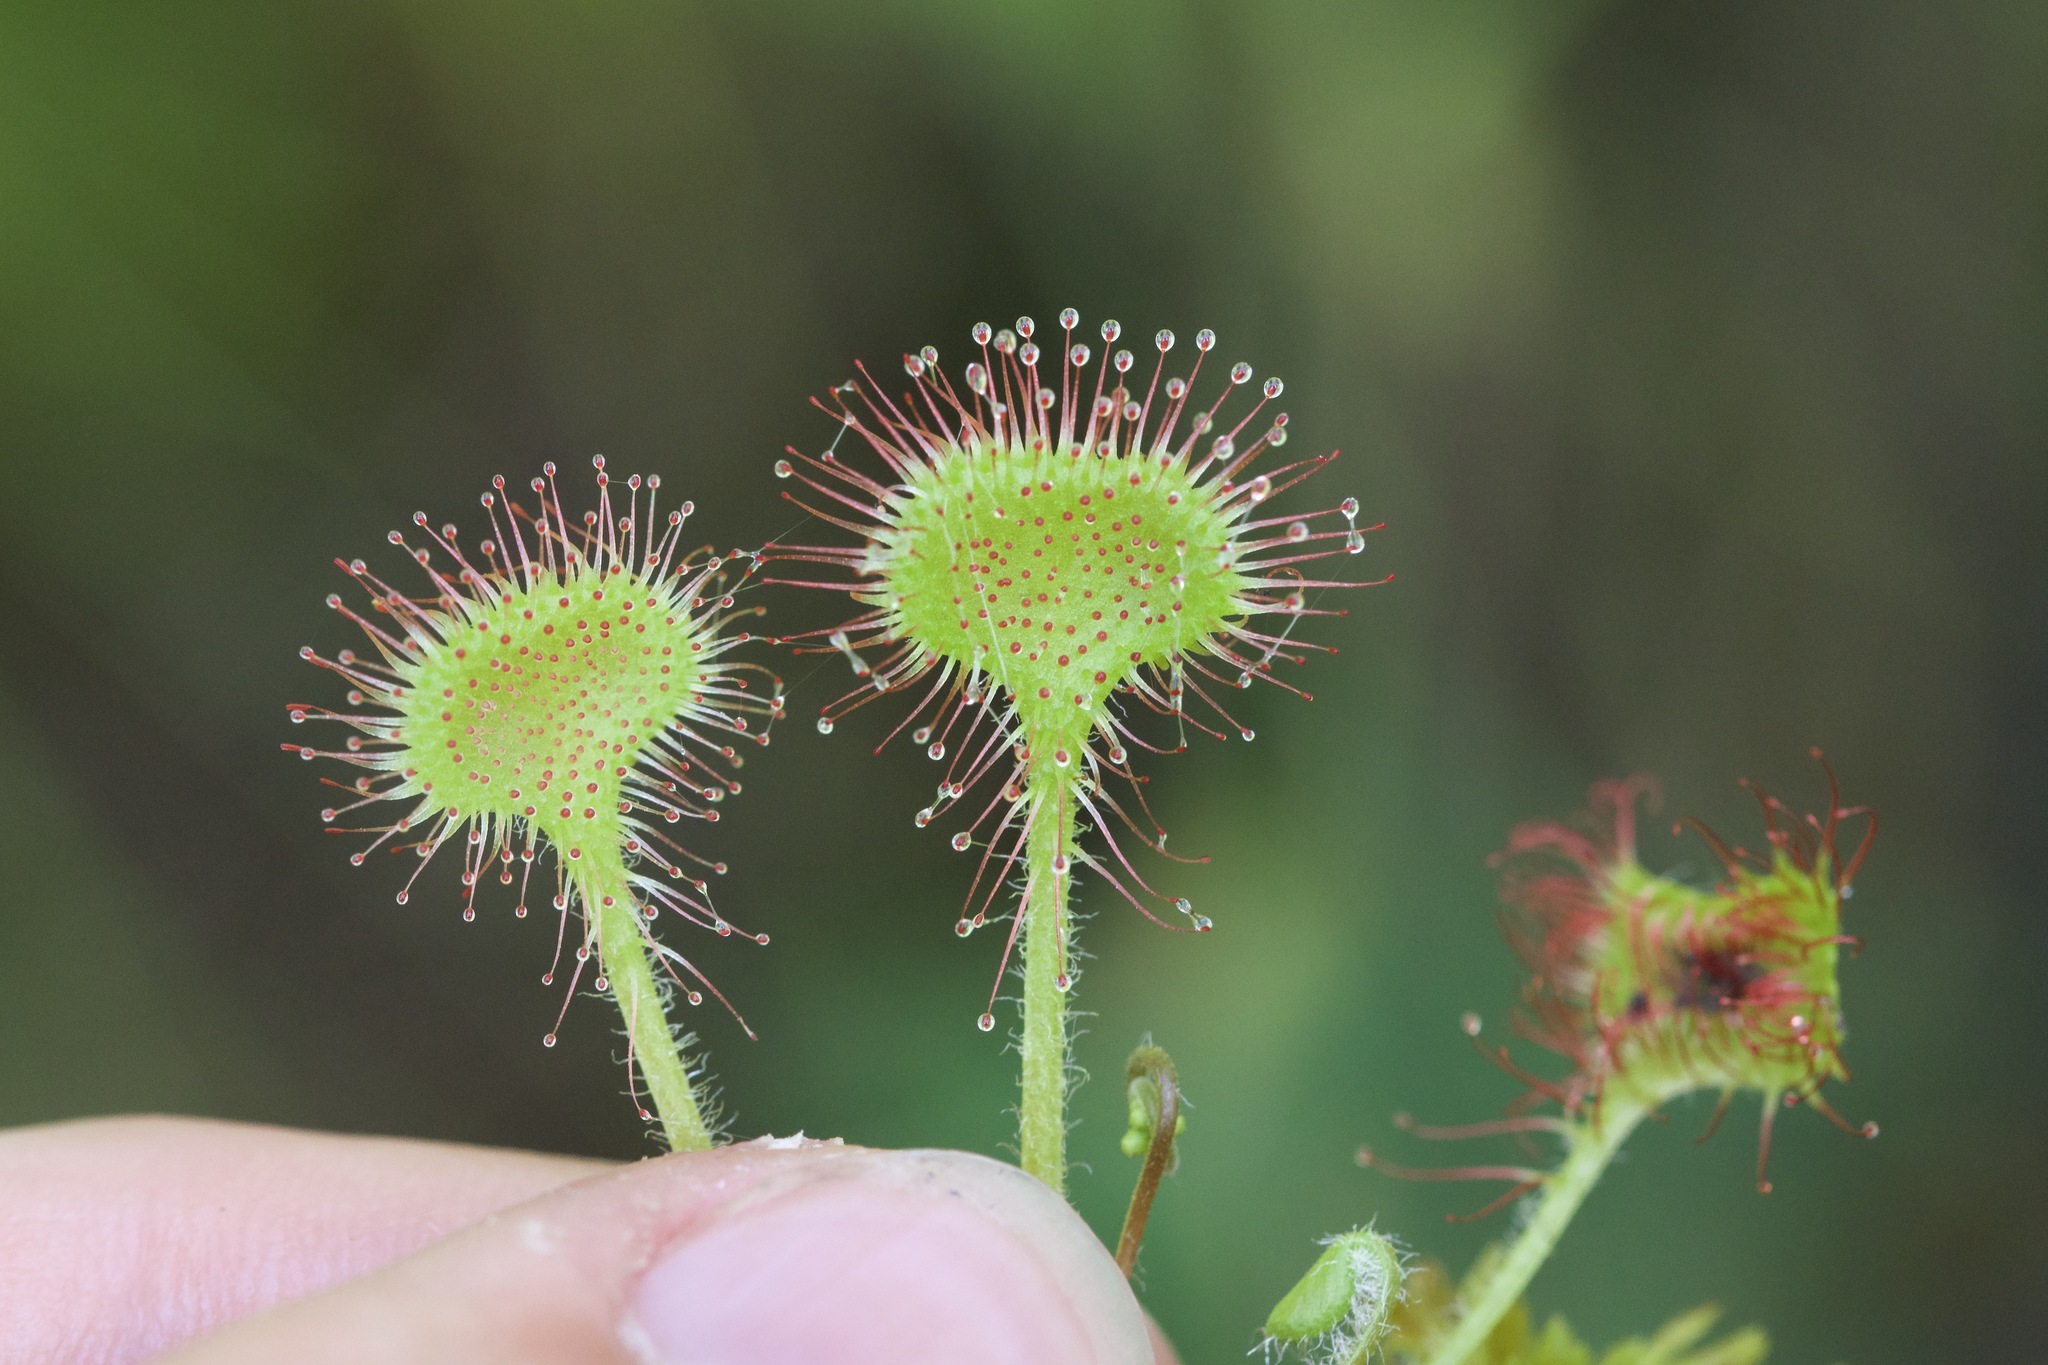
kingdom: Plantae
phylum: Tracheophyta
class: Magnoliopsida
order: Caryophyllales
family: Droseraceae
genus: Drosera
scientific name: Drosera rotundifolia
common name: Round-leaved sundew
